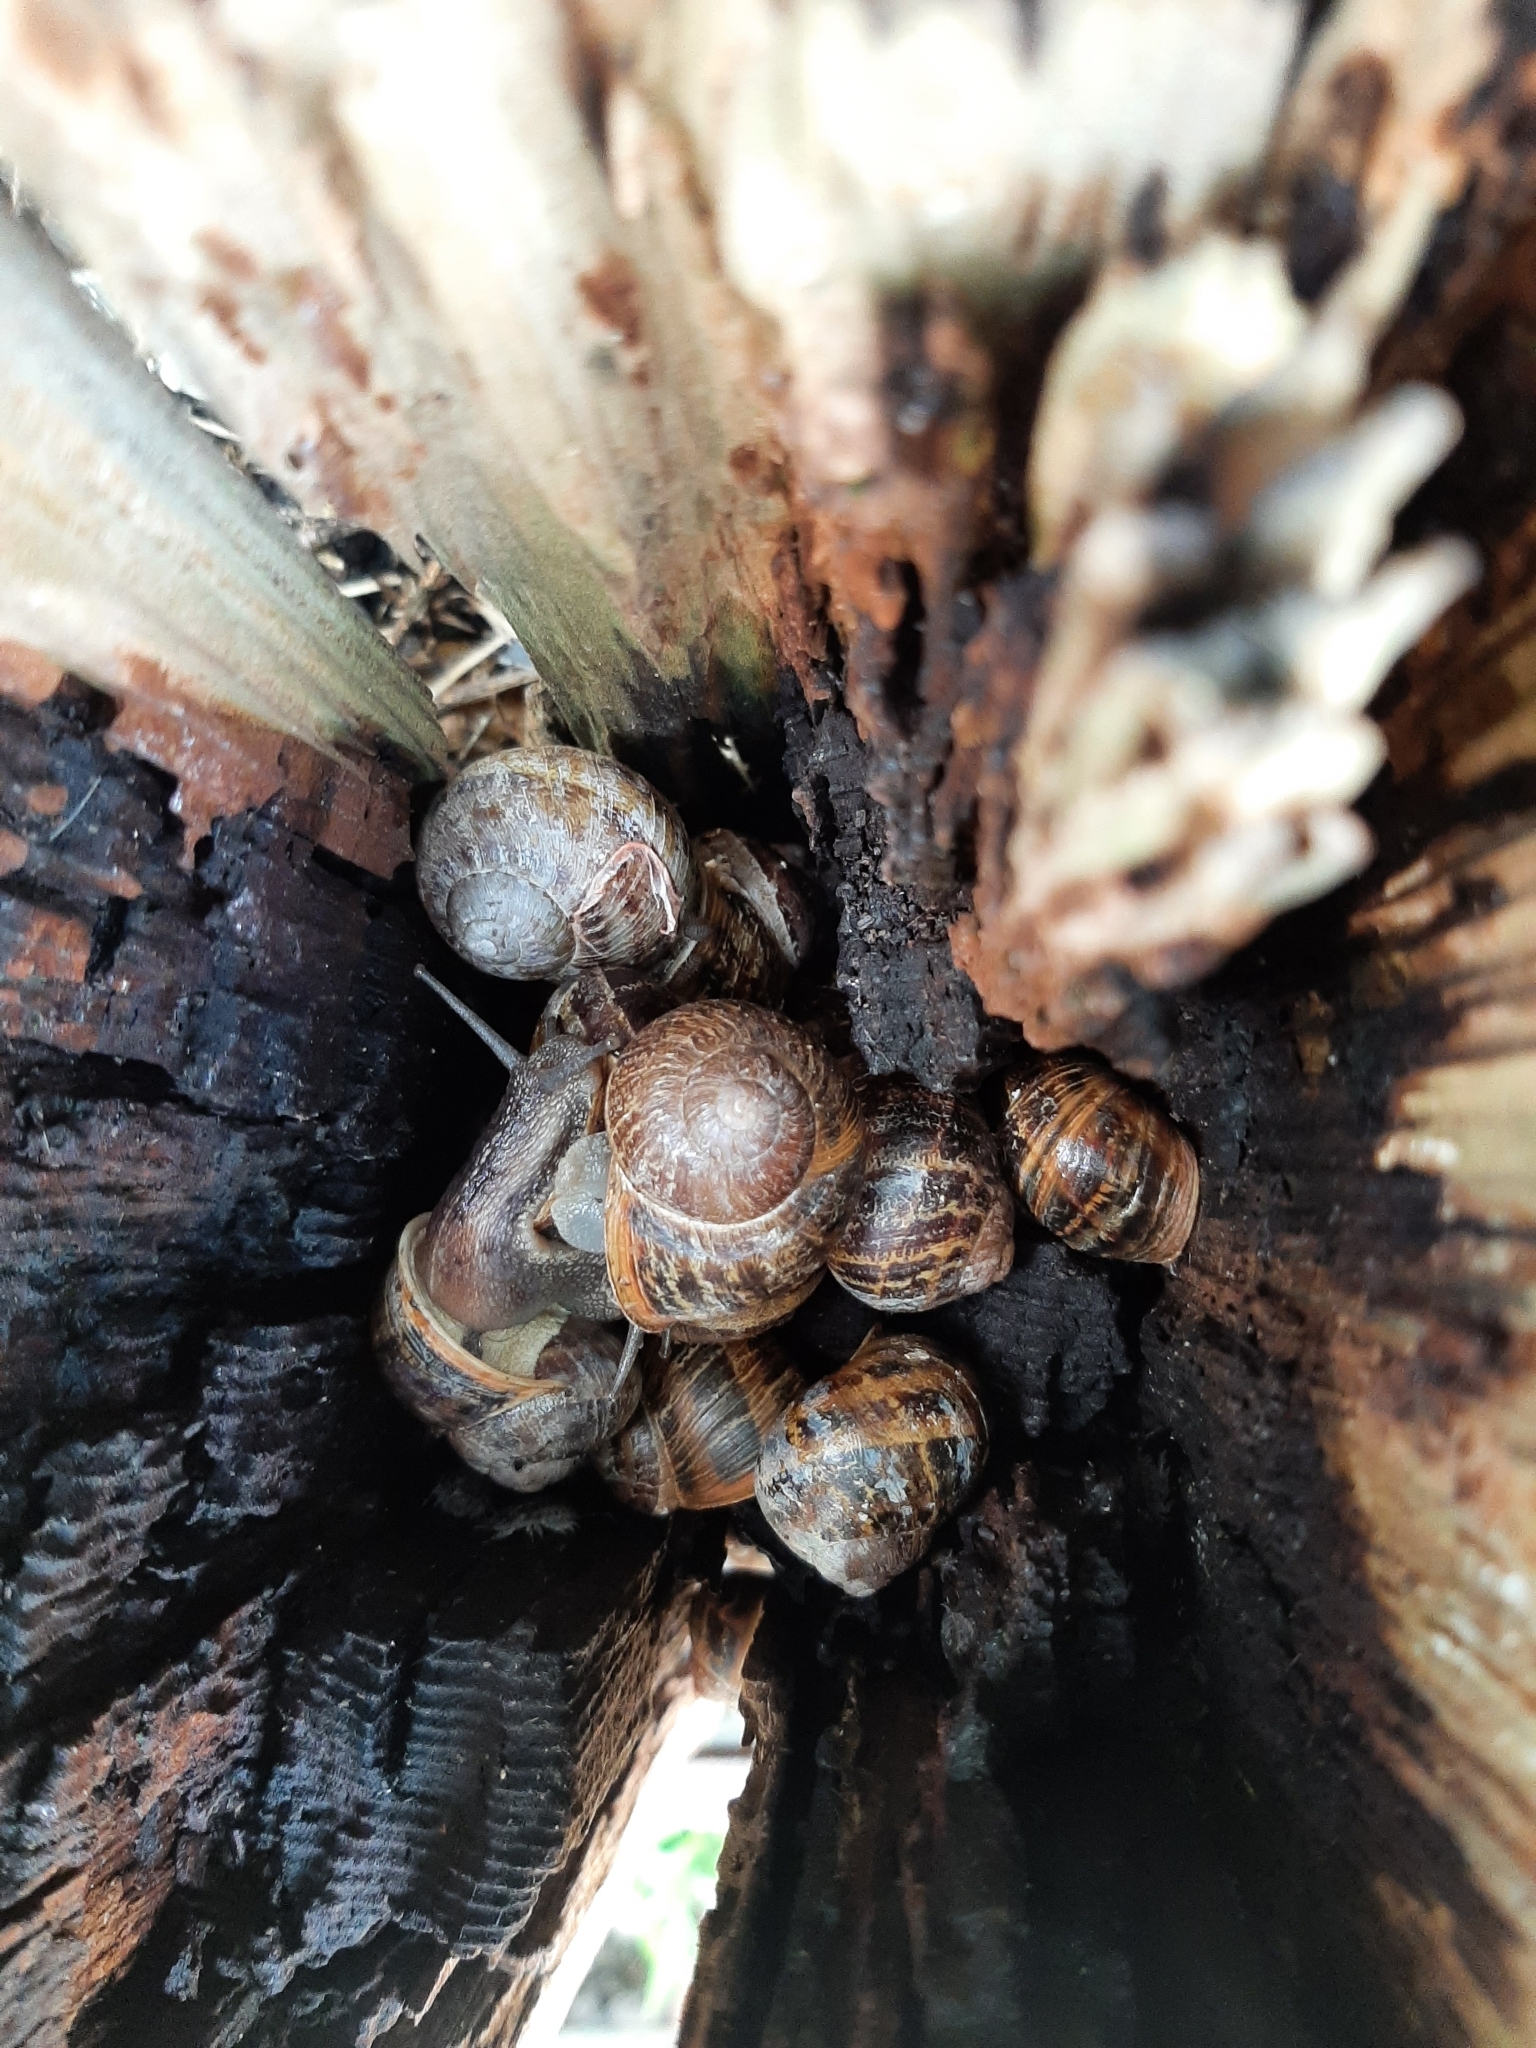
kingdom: Animalia
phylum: Mollusca
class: Gastropoda
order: Stylommatophora
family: Helicidae
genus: Cornu
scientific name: Cornu aspersum
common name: Brown garden snail
